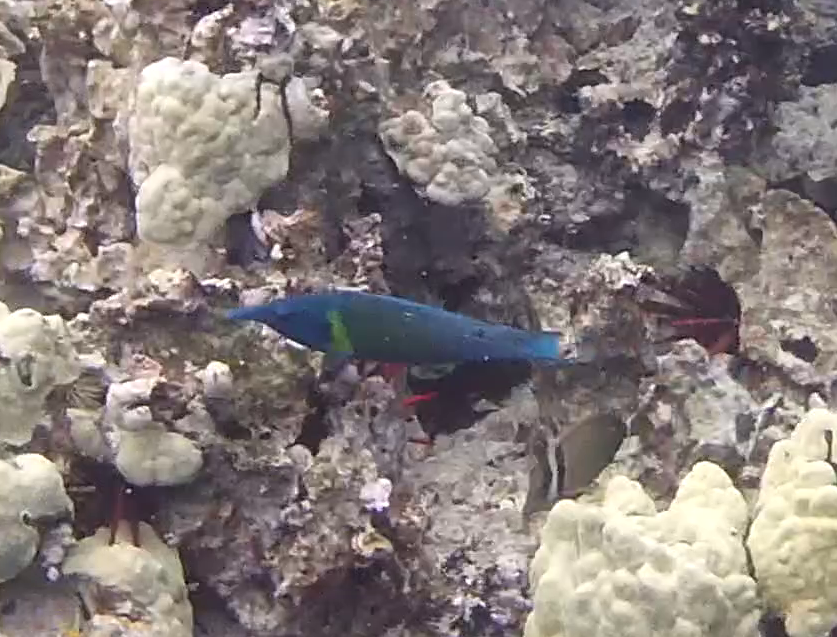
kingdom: Animalia
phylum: Chordata
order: Perciformes
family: Labridae
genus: Gomphosus
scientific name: Gomphosus varius
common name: Bird wrasse
